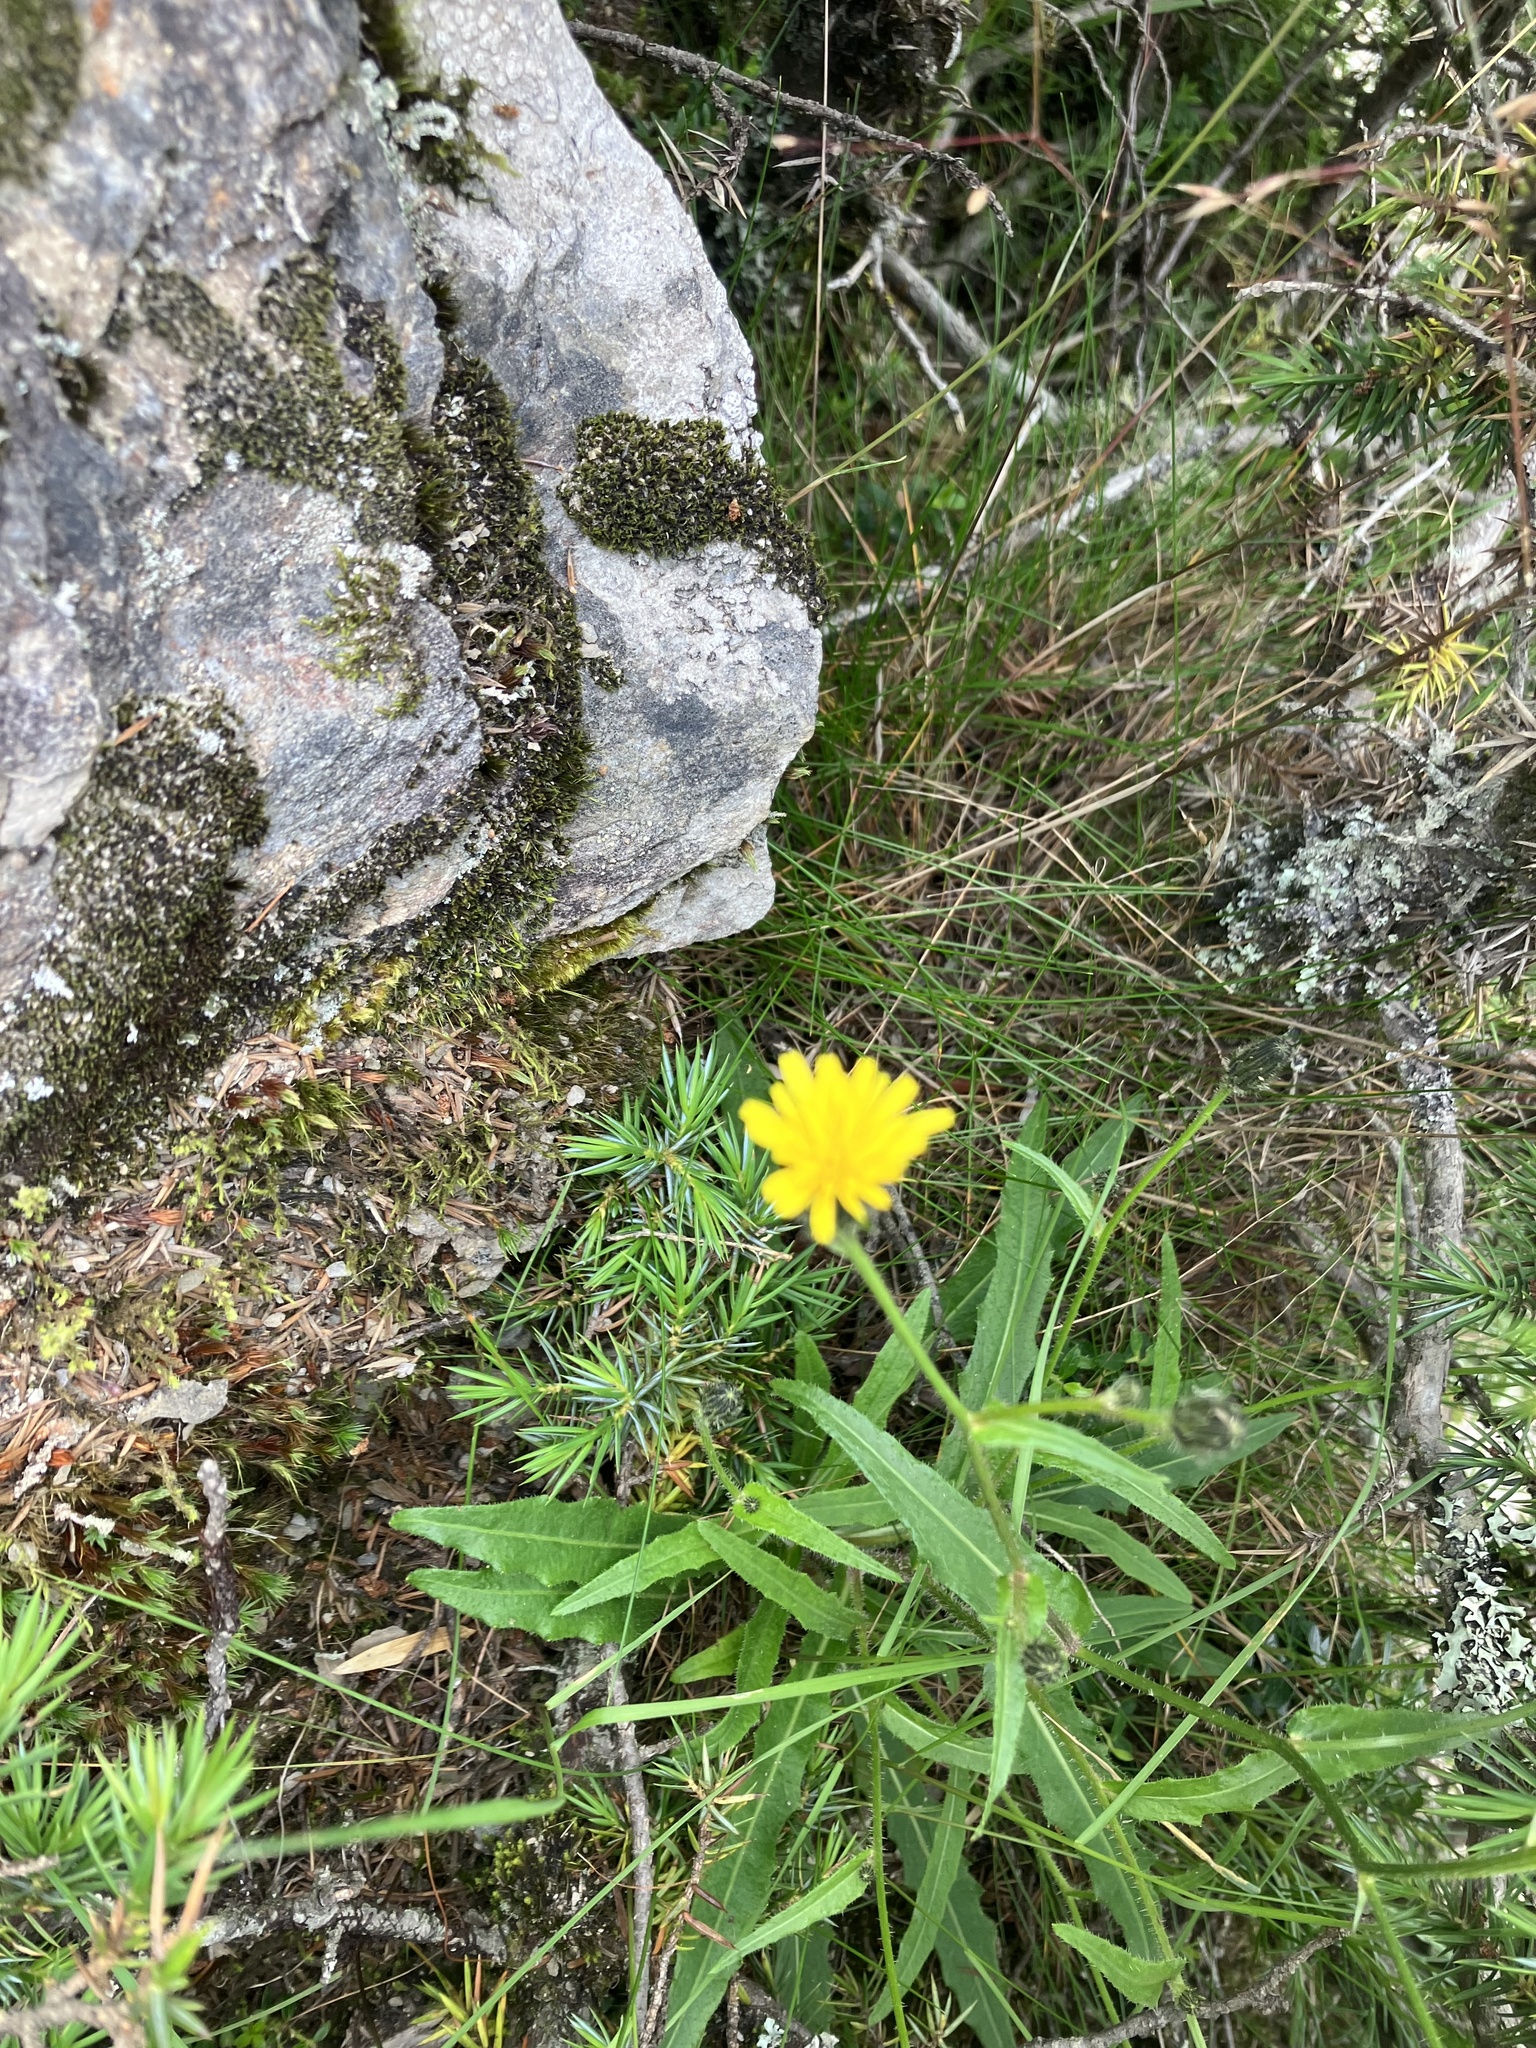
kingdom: Plantae
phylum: Tracheophyta
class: Magnoliopsida
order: Asterales
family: Asteraceae
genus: Picris
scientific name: Picris angustifolia
